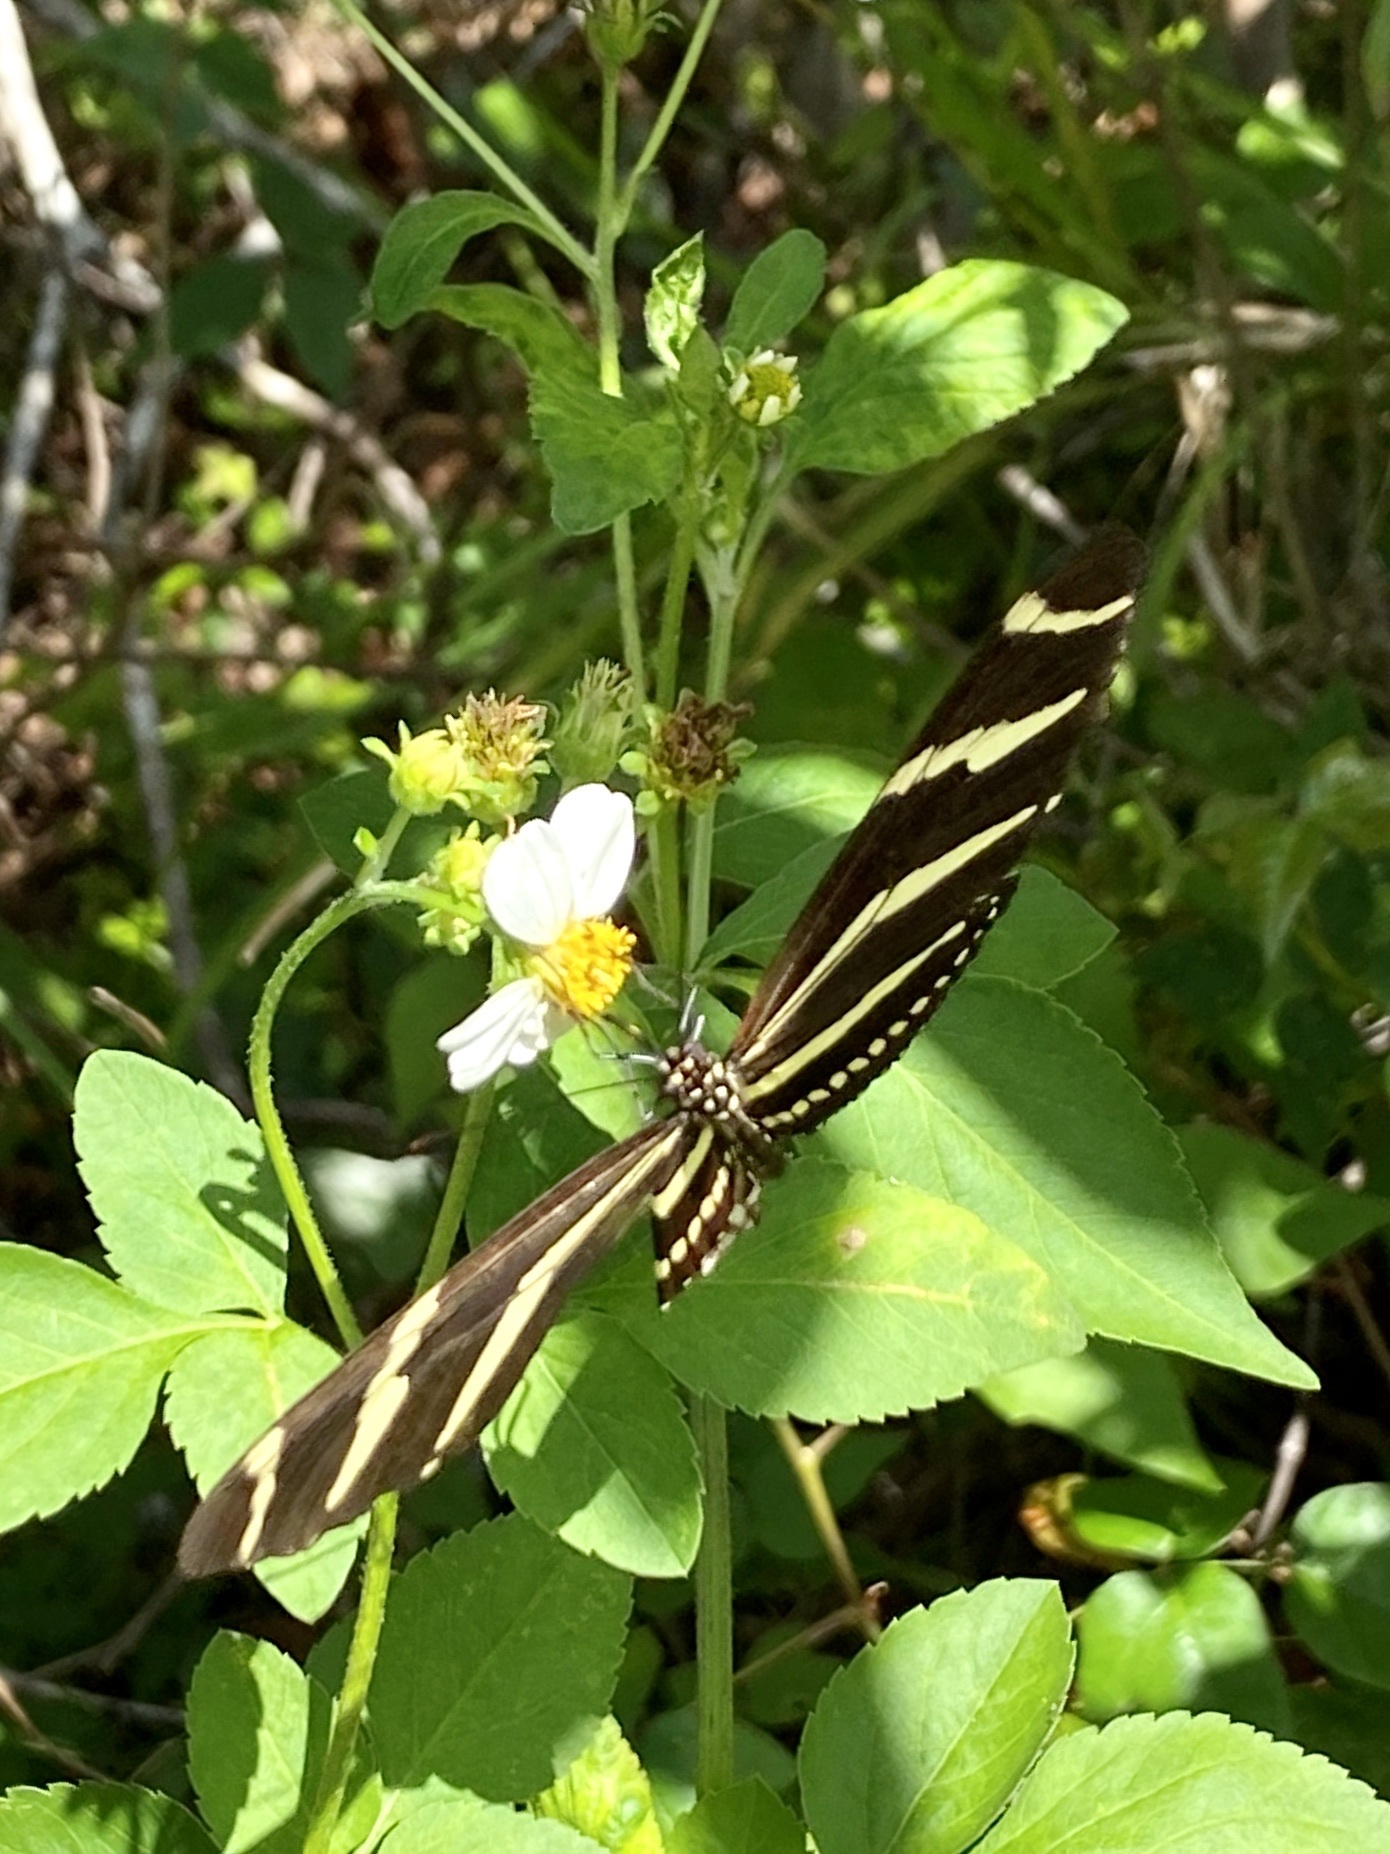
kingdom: Animalia
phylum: Arthropoda
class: Insecta
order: Lepidoptera
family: Nymphalidae
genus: Heliconius
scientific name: Heliconius charithonia
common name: Zebra long wing
